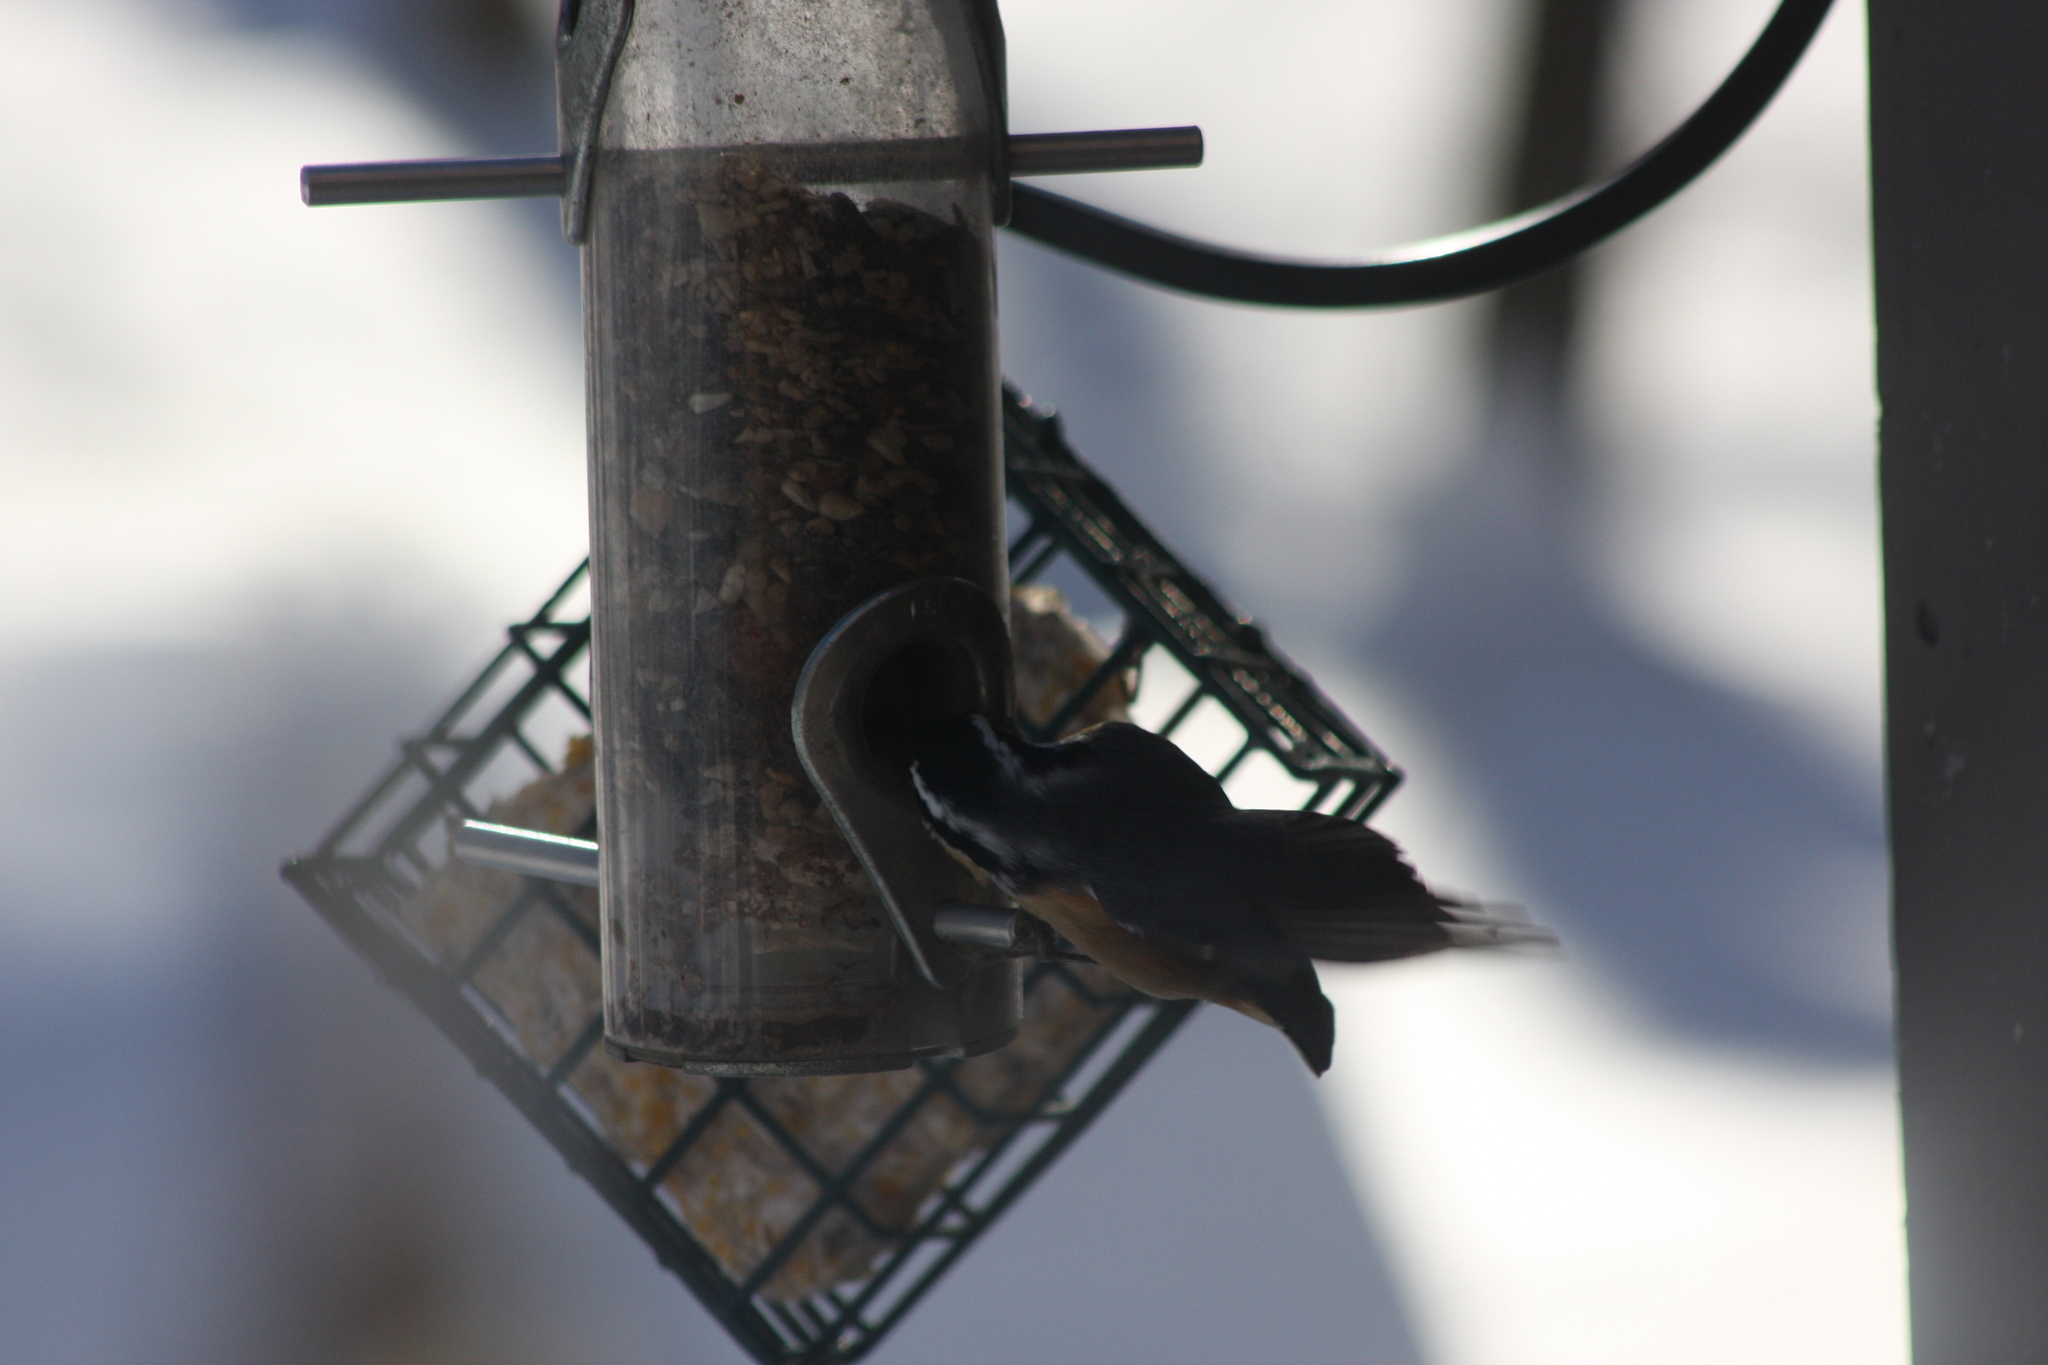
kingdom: Animalia
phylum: Chordata
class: Aves
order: Passeriformes
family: Sittidae
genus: Sitta
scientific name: Sitta canadensis
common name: Red-breasted nuthatch
